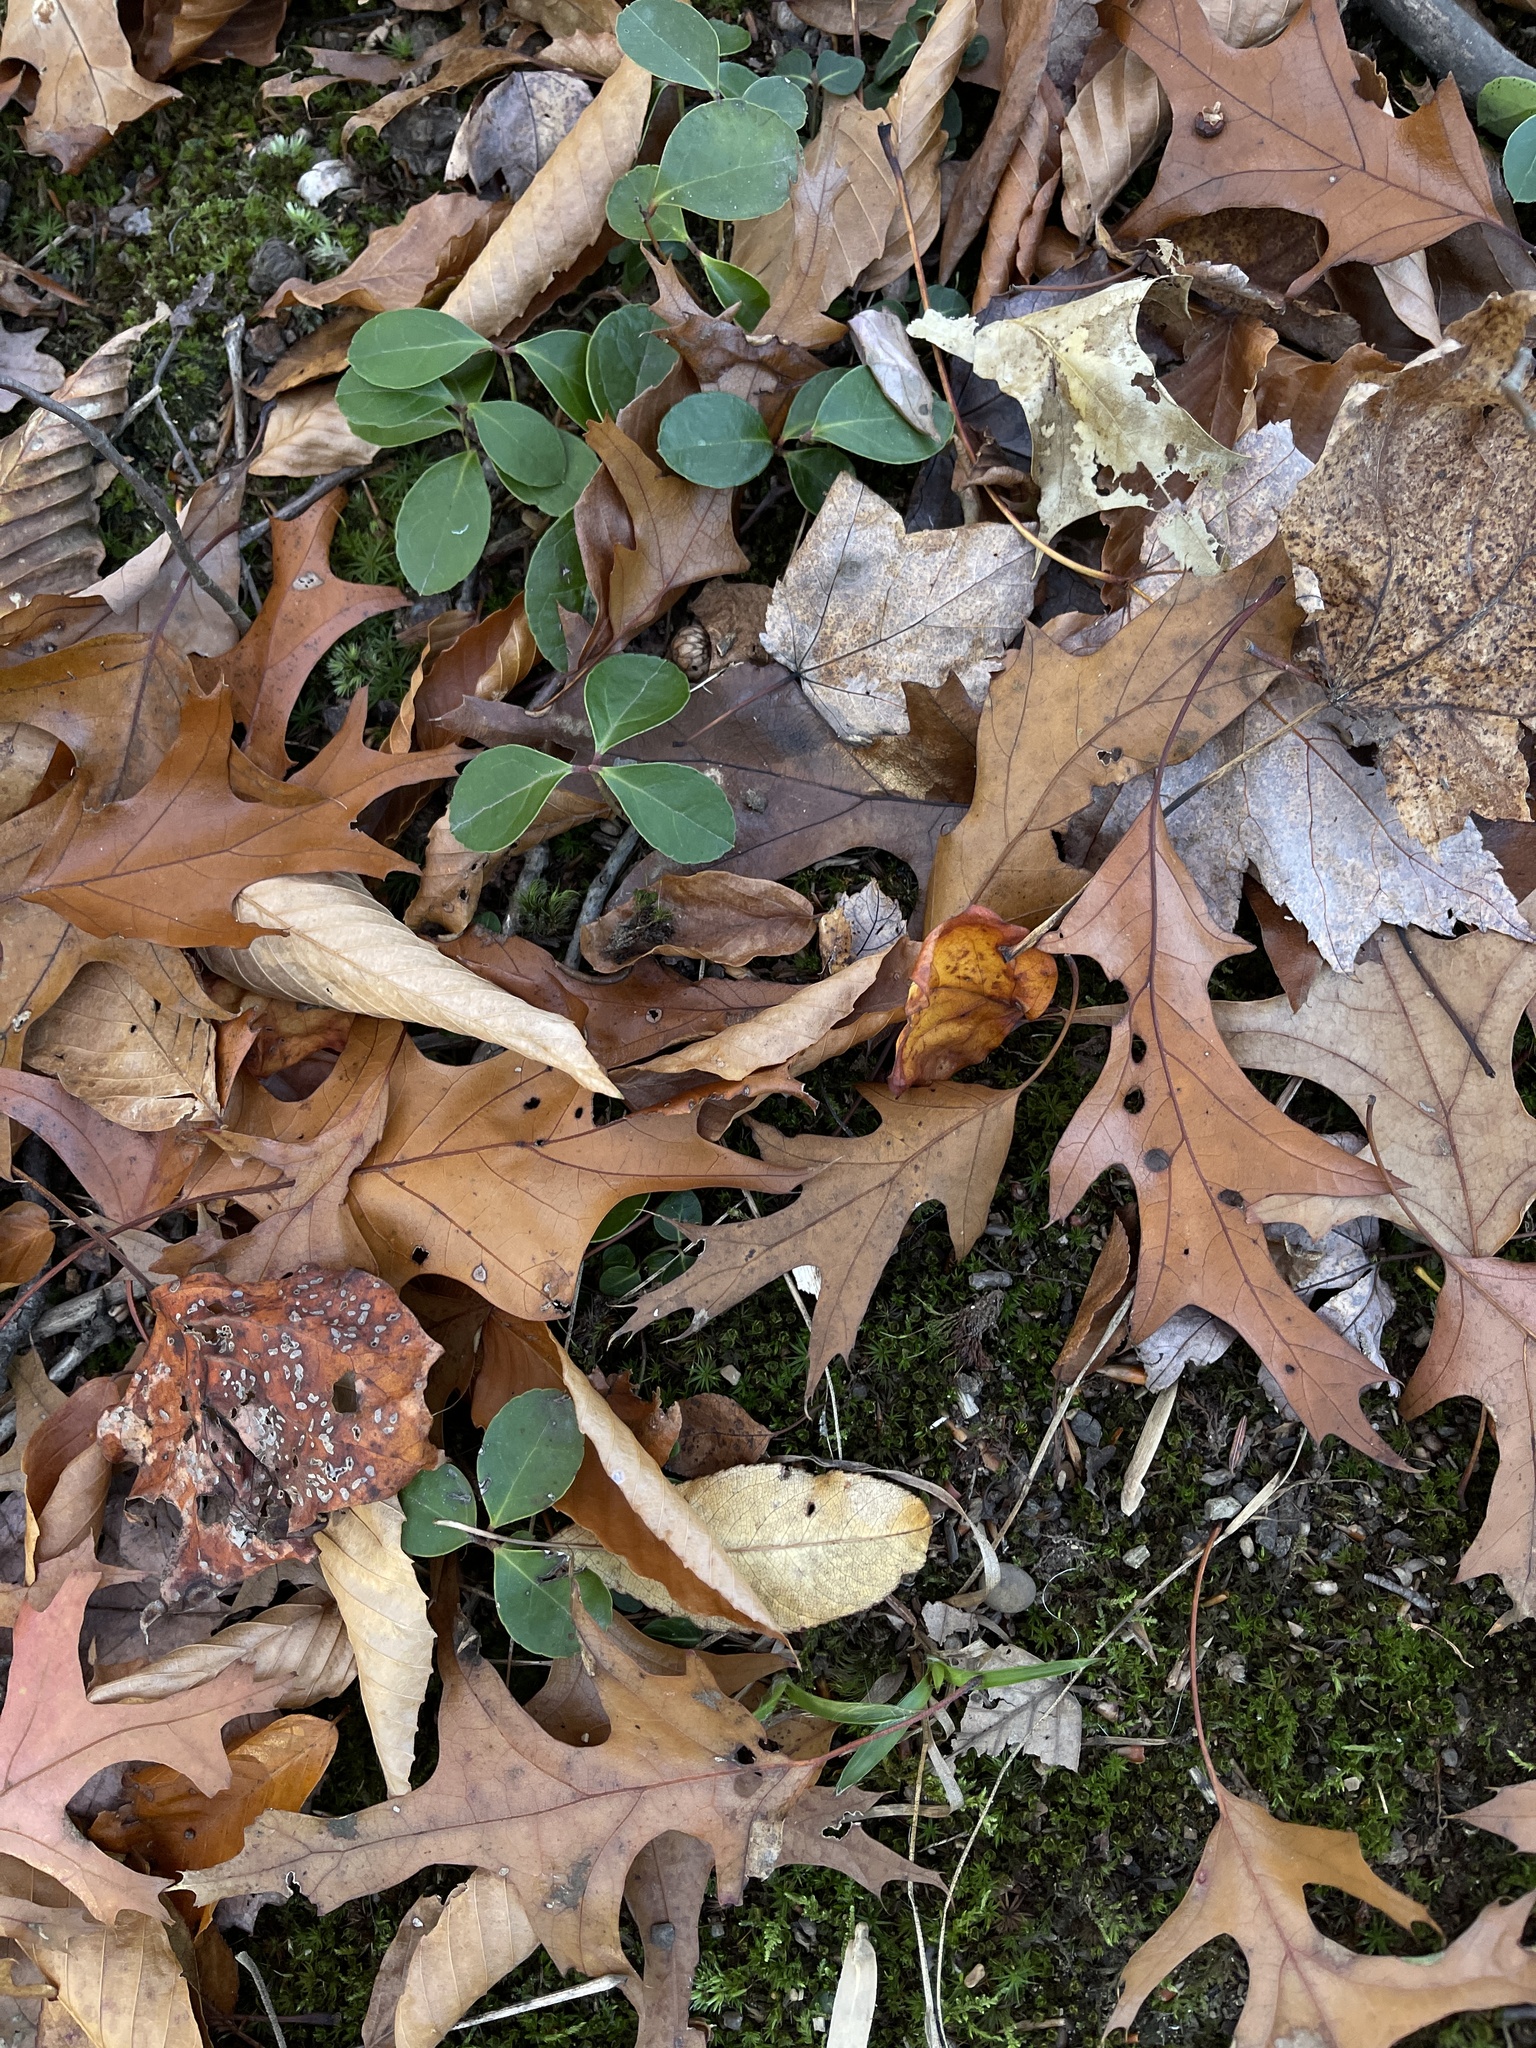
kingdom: Plantae
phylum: Tracheophyta
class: Magnoliopsida
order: Ericales
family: Ericaceae
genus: Gaultheria
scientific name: Gaultheria procumbens
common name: Checkerberry
